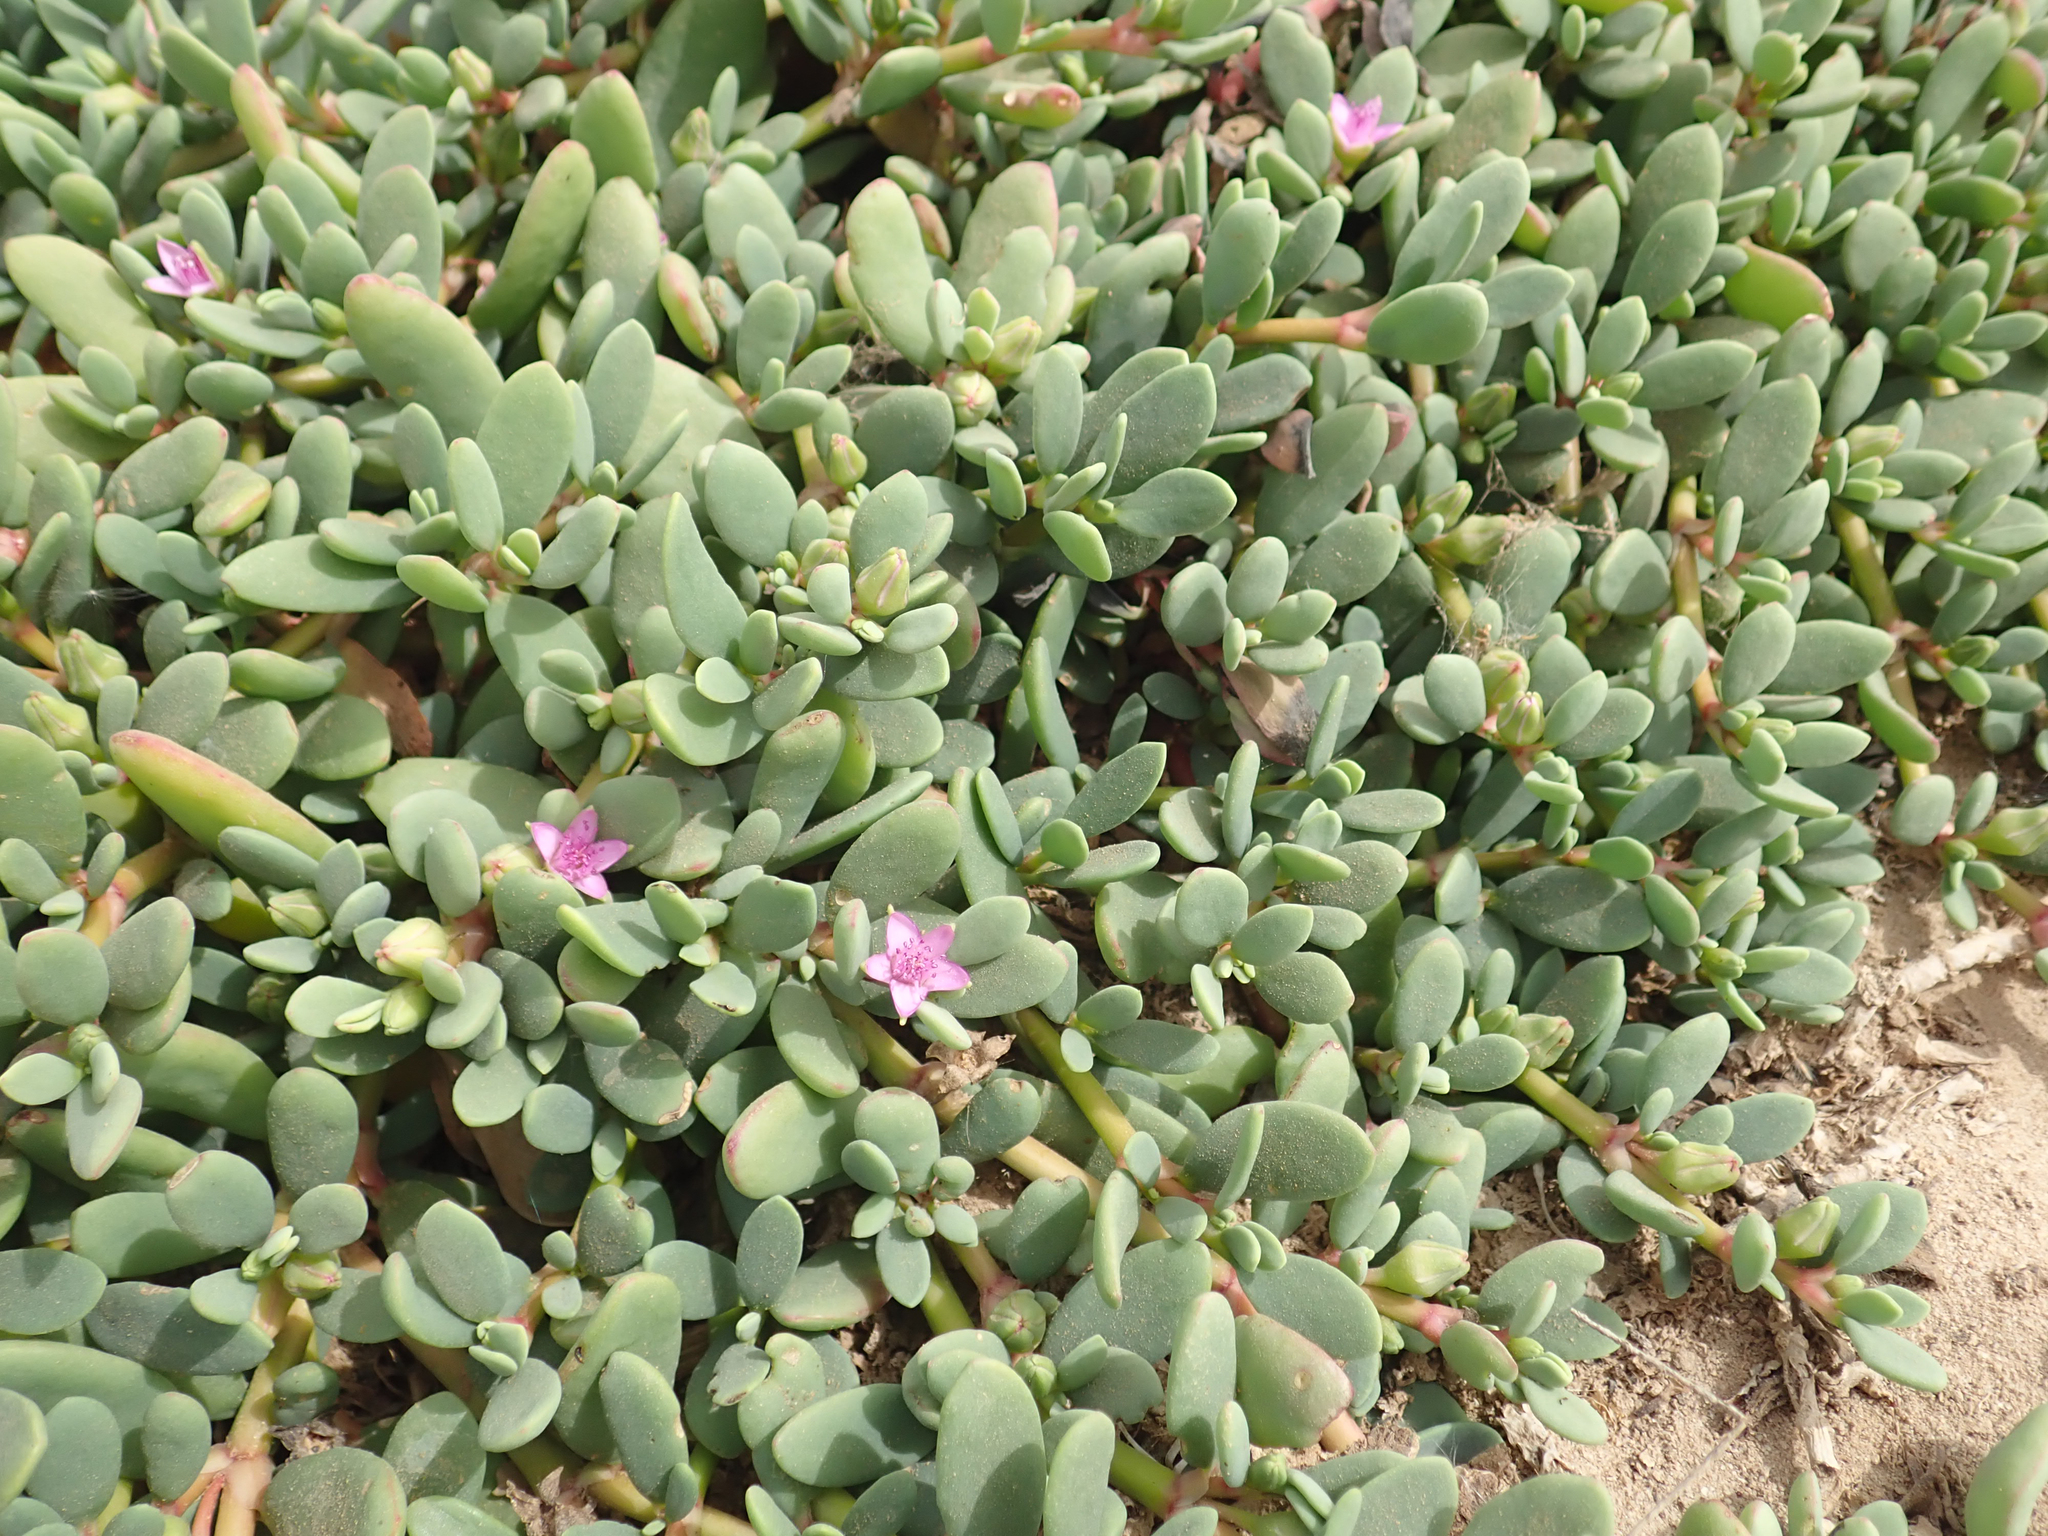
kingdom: Plantae
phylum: Tracheophyta
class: Magnoliopsida
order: Caryophyllales
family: Aizoaceae
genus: Sesuvium
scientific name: Sesuvium portulacastrum
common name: Sea-purslane
